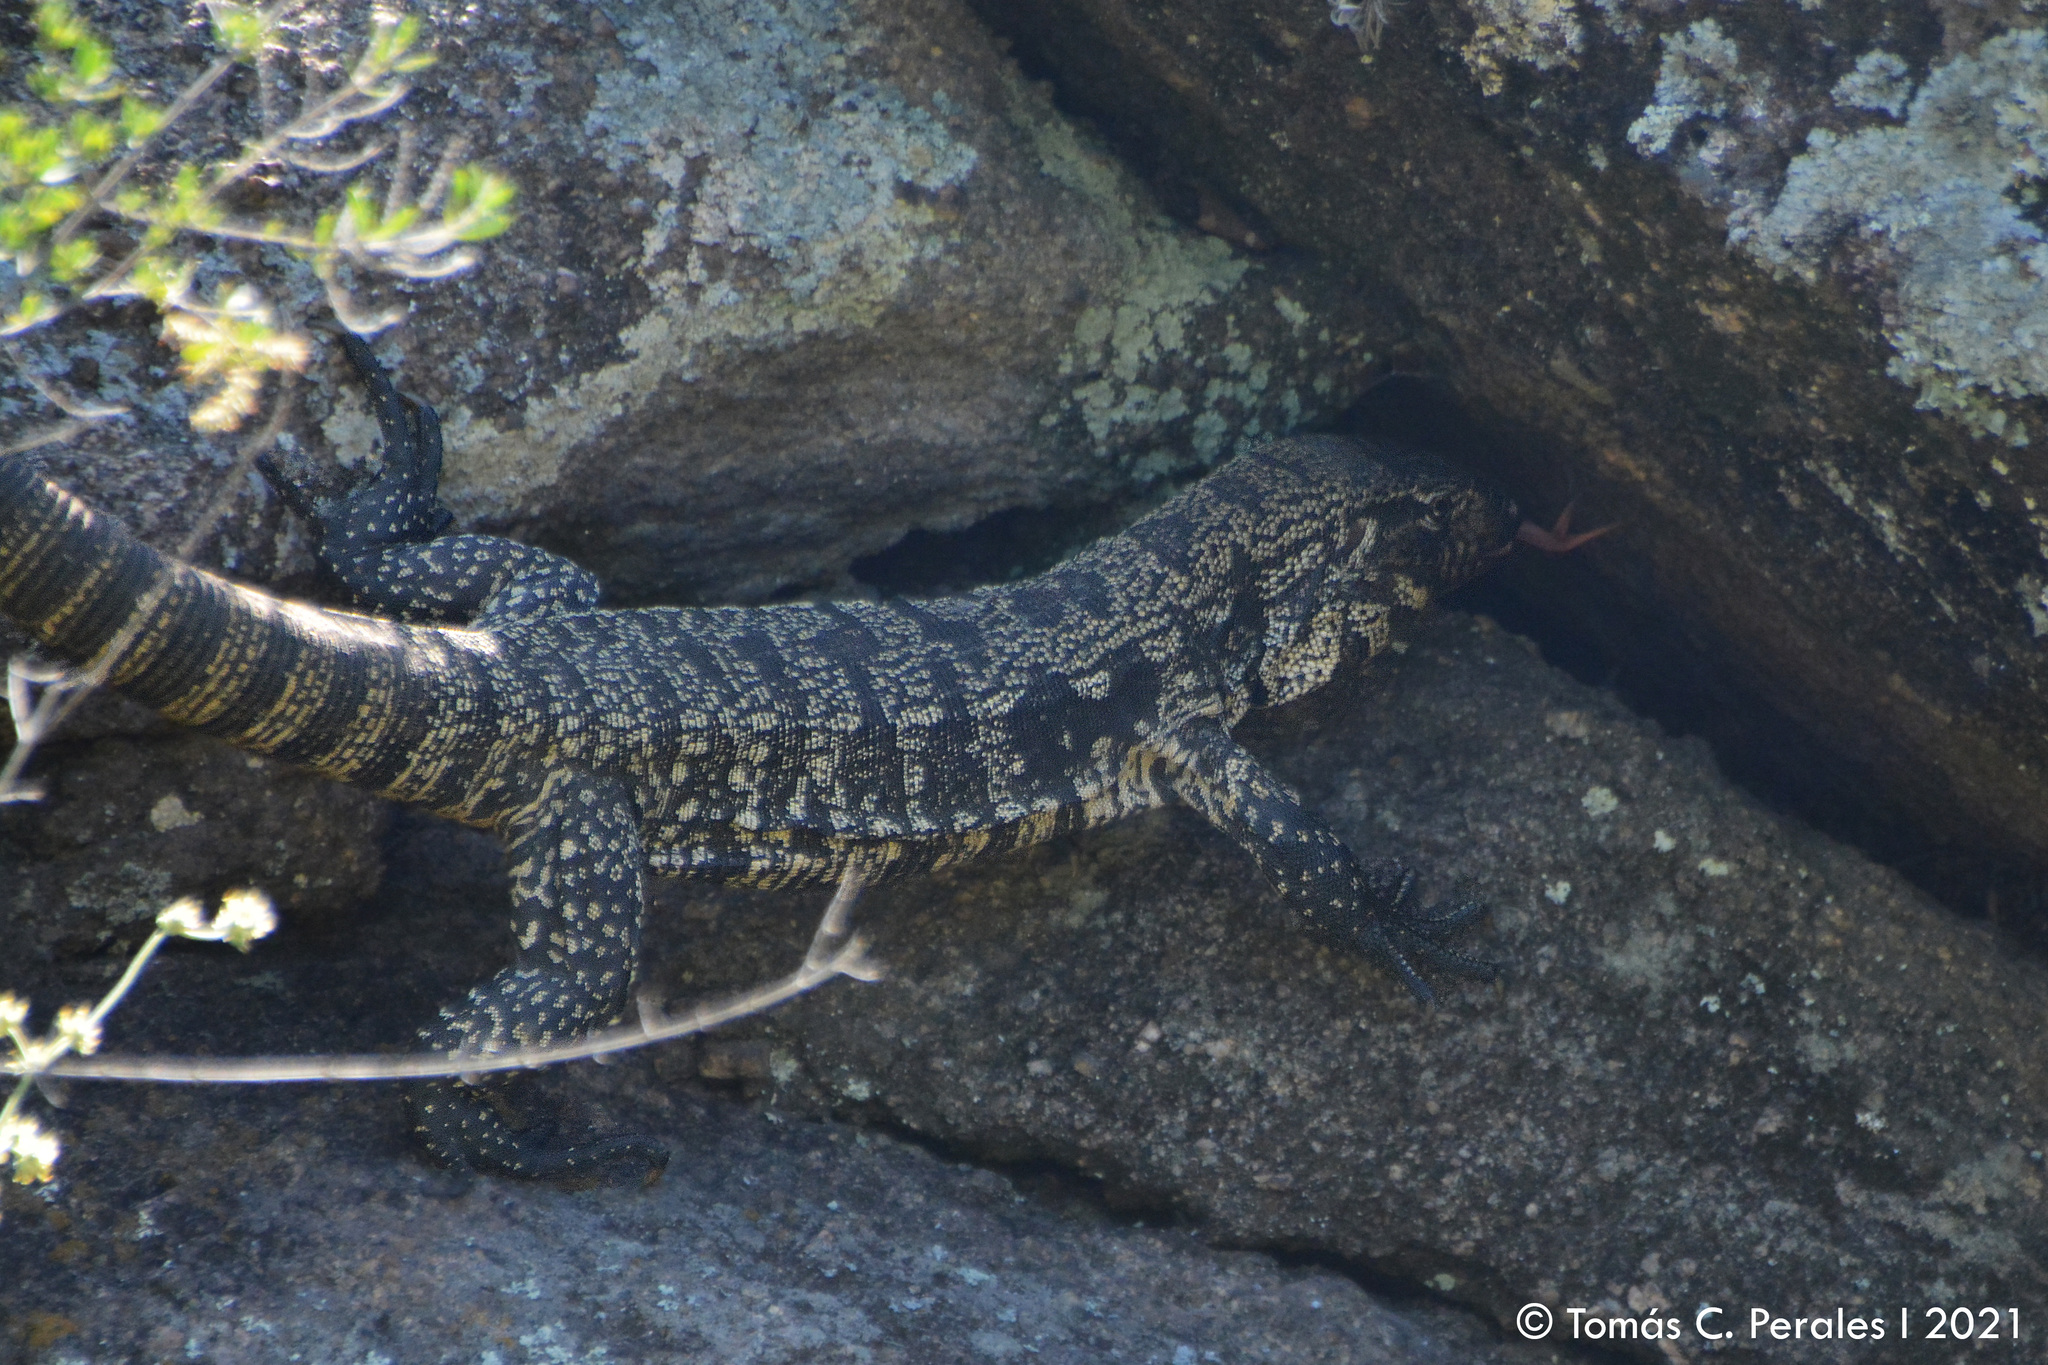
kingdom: Animalia
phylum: Chordata
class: Squamata
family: Teiidae
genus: Salvator
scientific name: Salvator merianae
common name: Argentine black and white tegu
